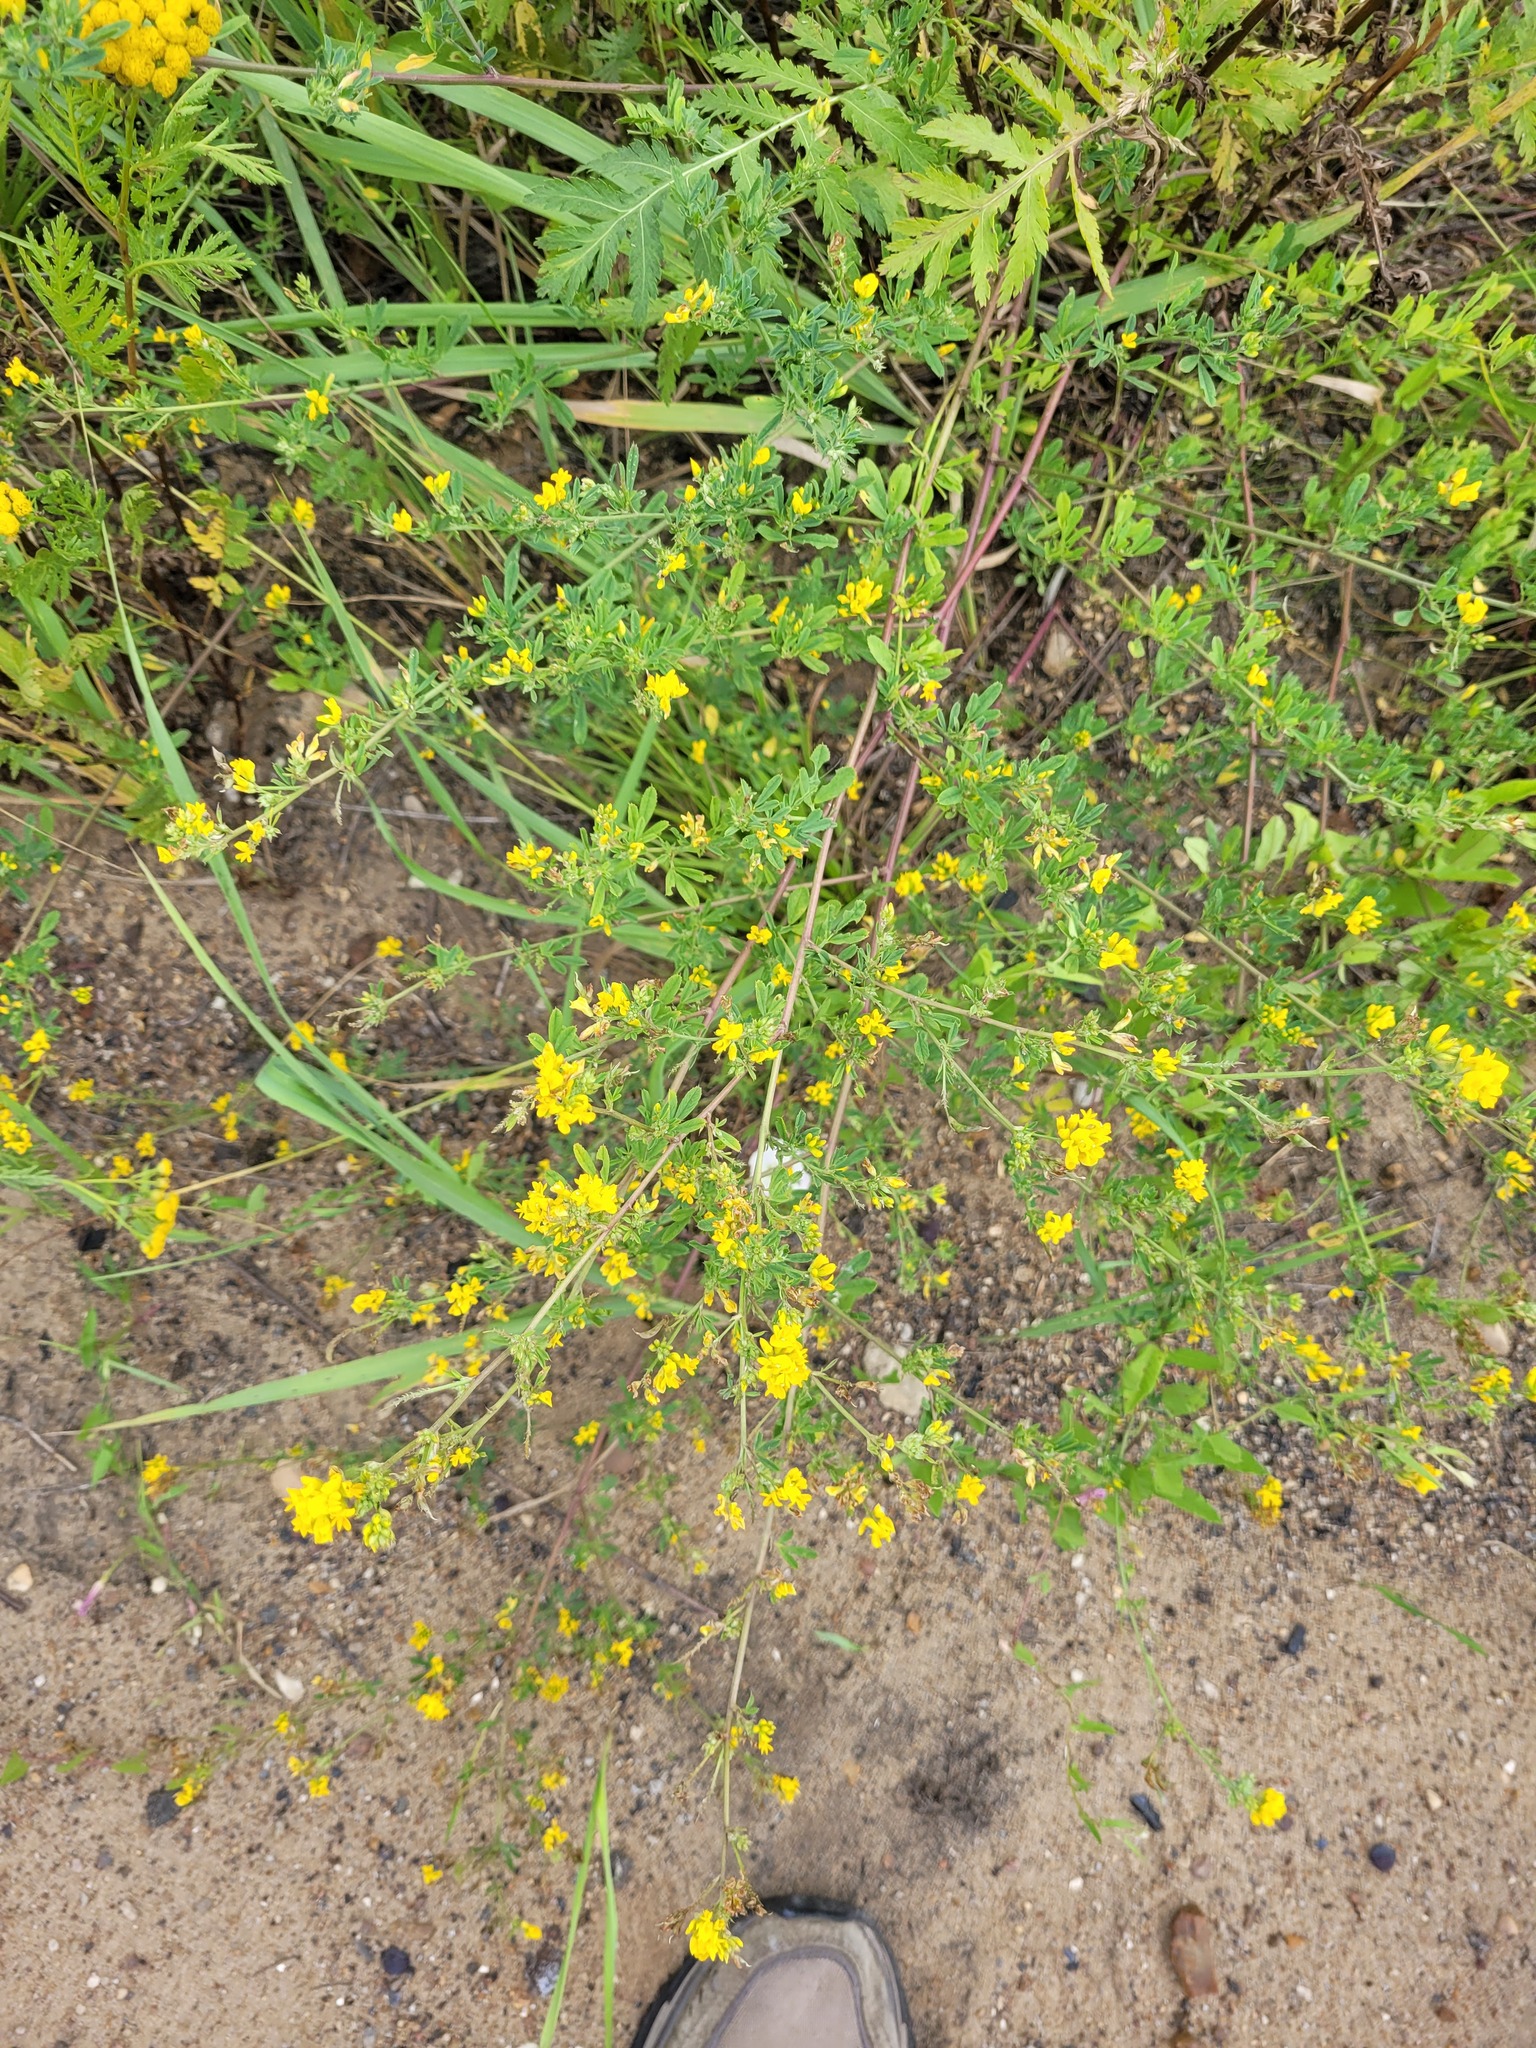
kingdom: Plantae
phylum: Tracheophyta
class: Magnoliopsida
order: Fabales
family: Fabaceae
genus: Medicago
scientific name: Medicago falcata
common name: Sickle medick
